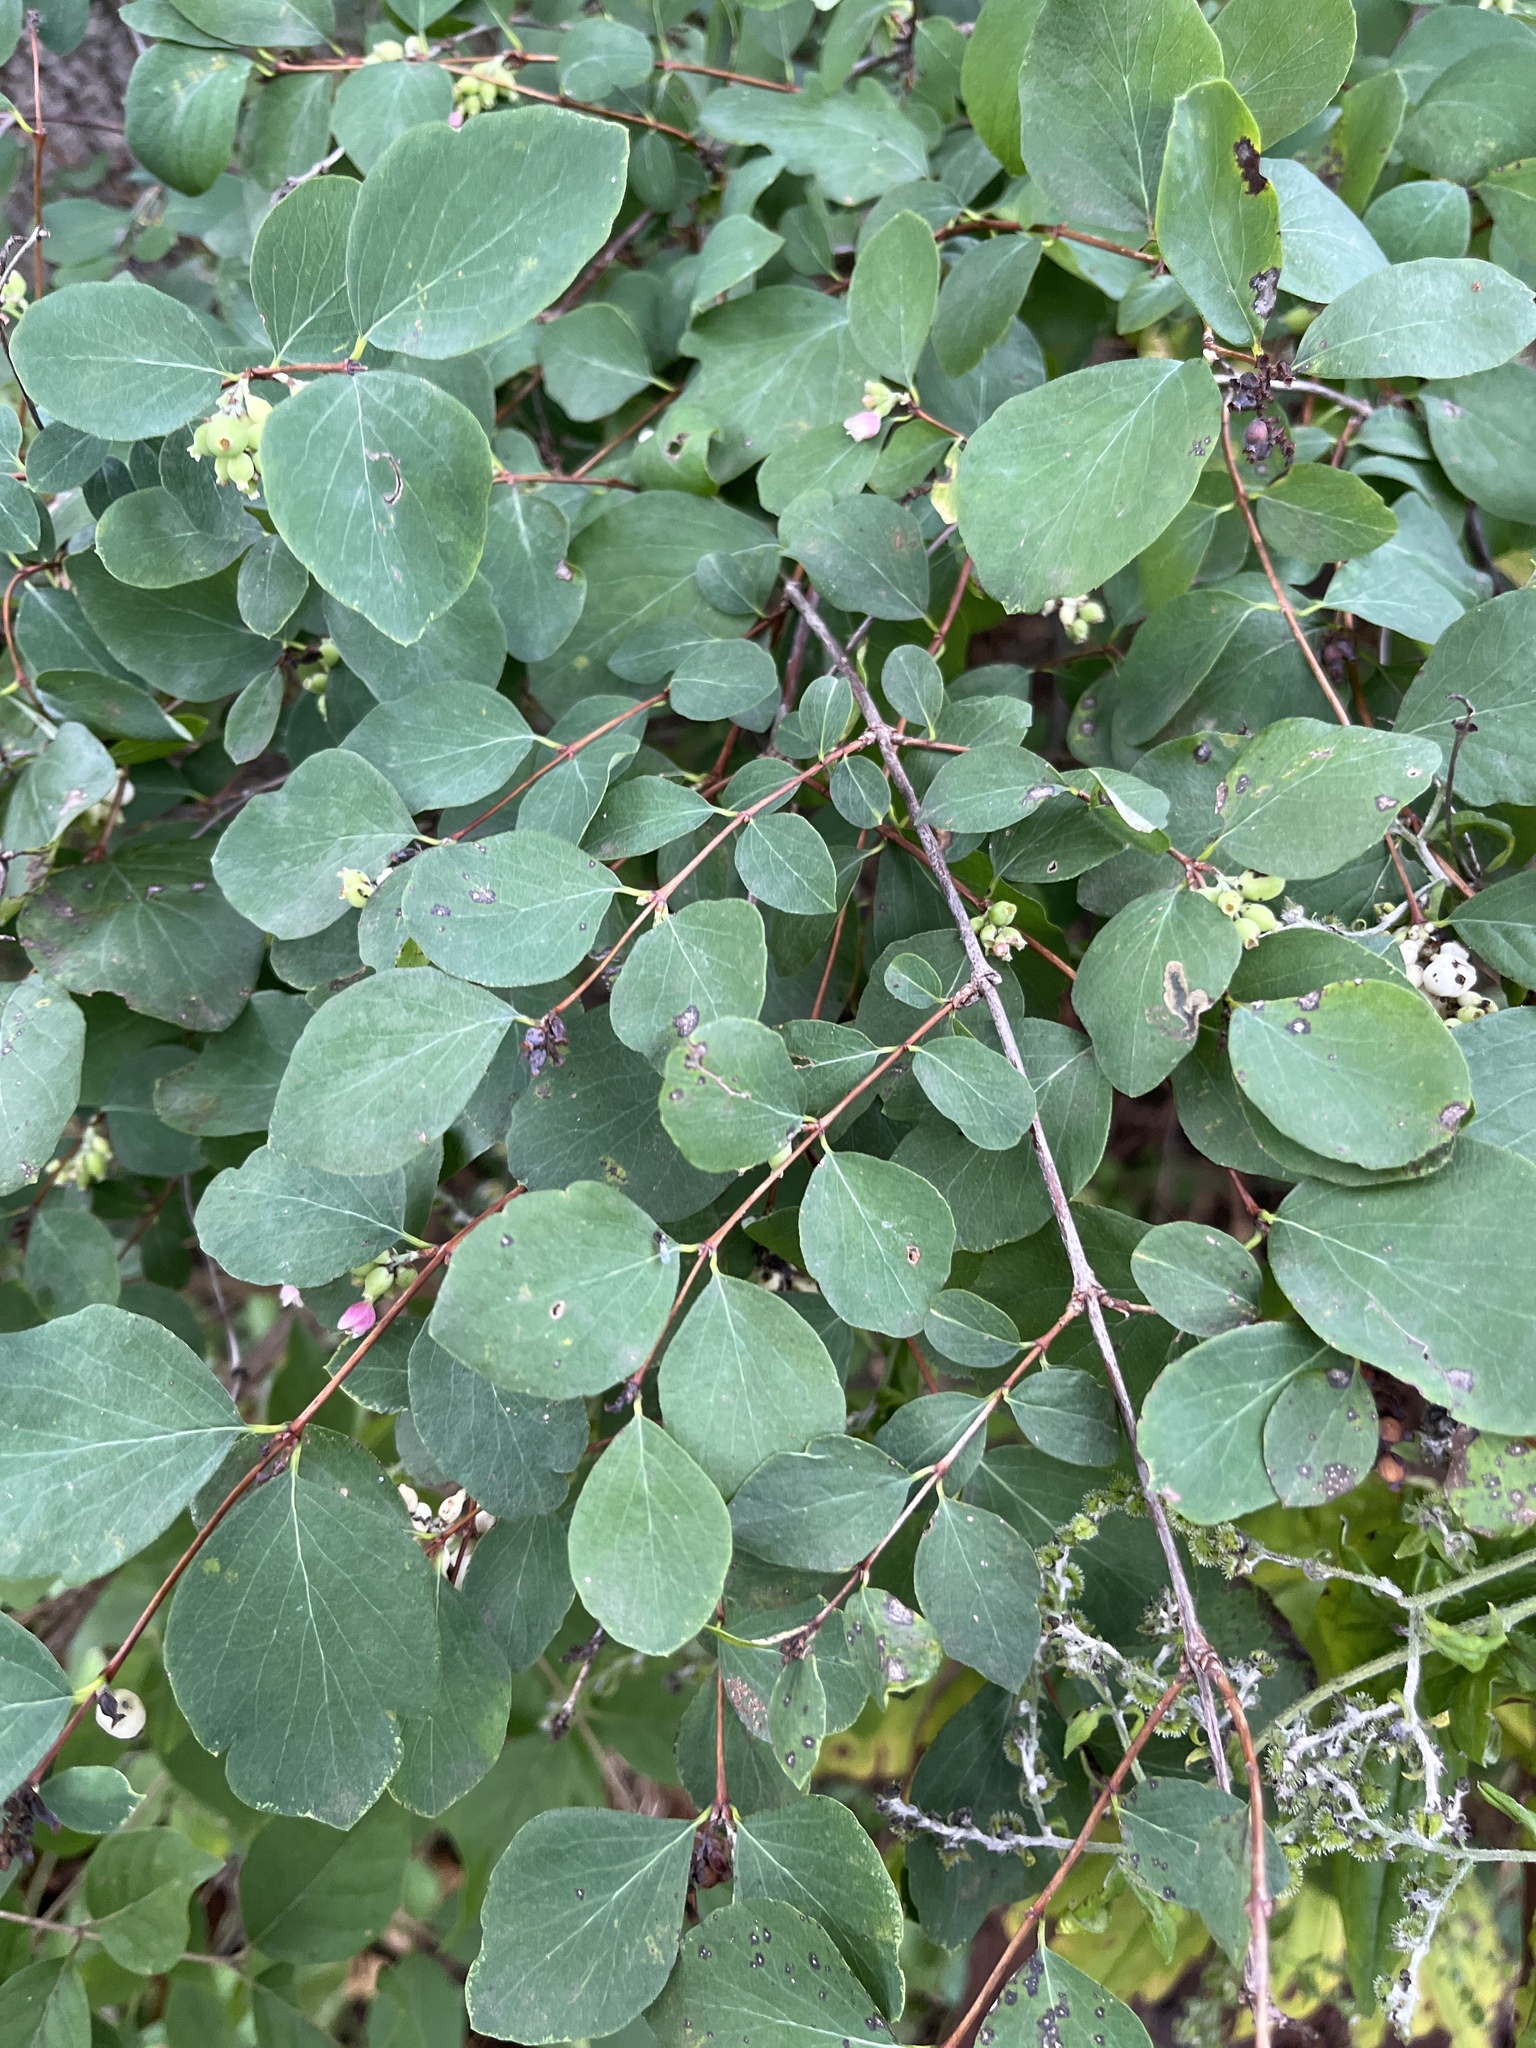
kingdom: Plantae
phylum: Tracheophyta
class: Magnoliopsida
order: Dipsacales
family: Caprifoliaceae
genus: Symphoricarpos
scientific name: Symphoricarpos albus
